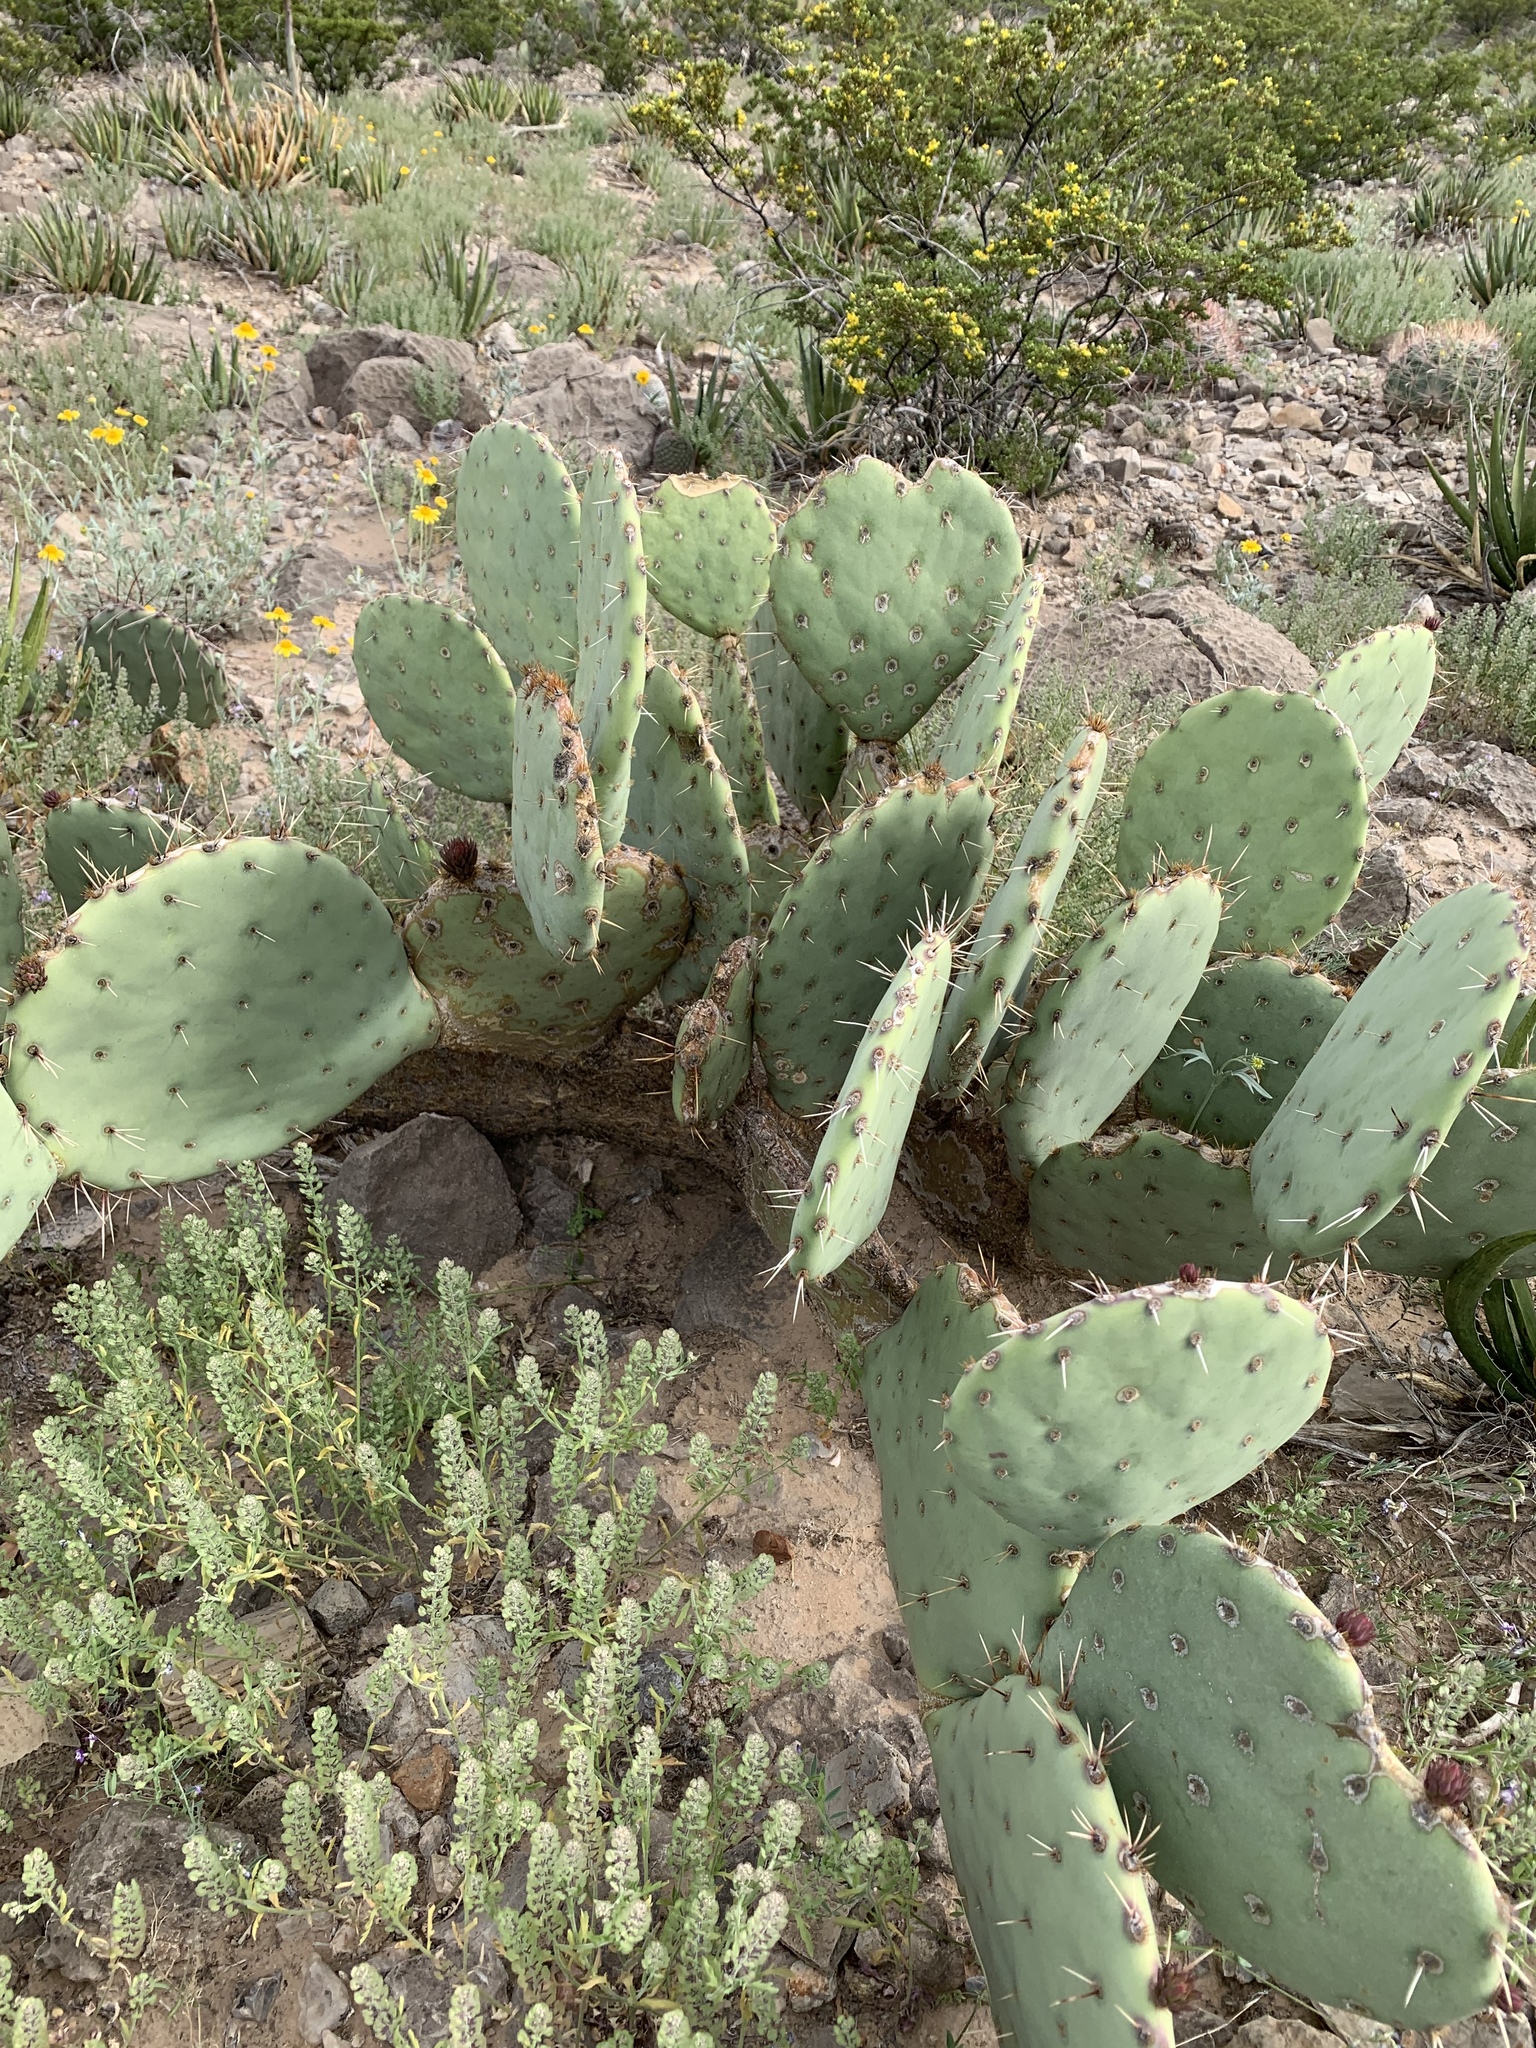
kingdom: Plantae
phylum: Tracheophyta
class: Magnoliopsida
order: Caryophyllales
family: Cactaceae
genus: Opuntia
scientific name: Opuntia orbiculata
